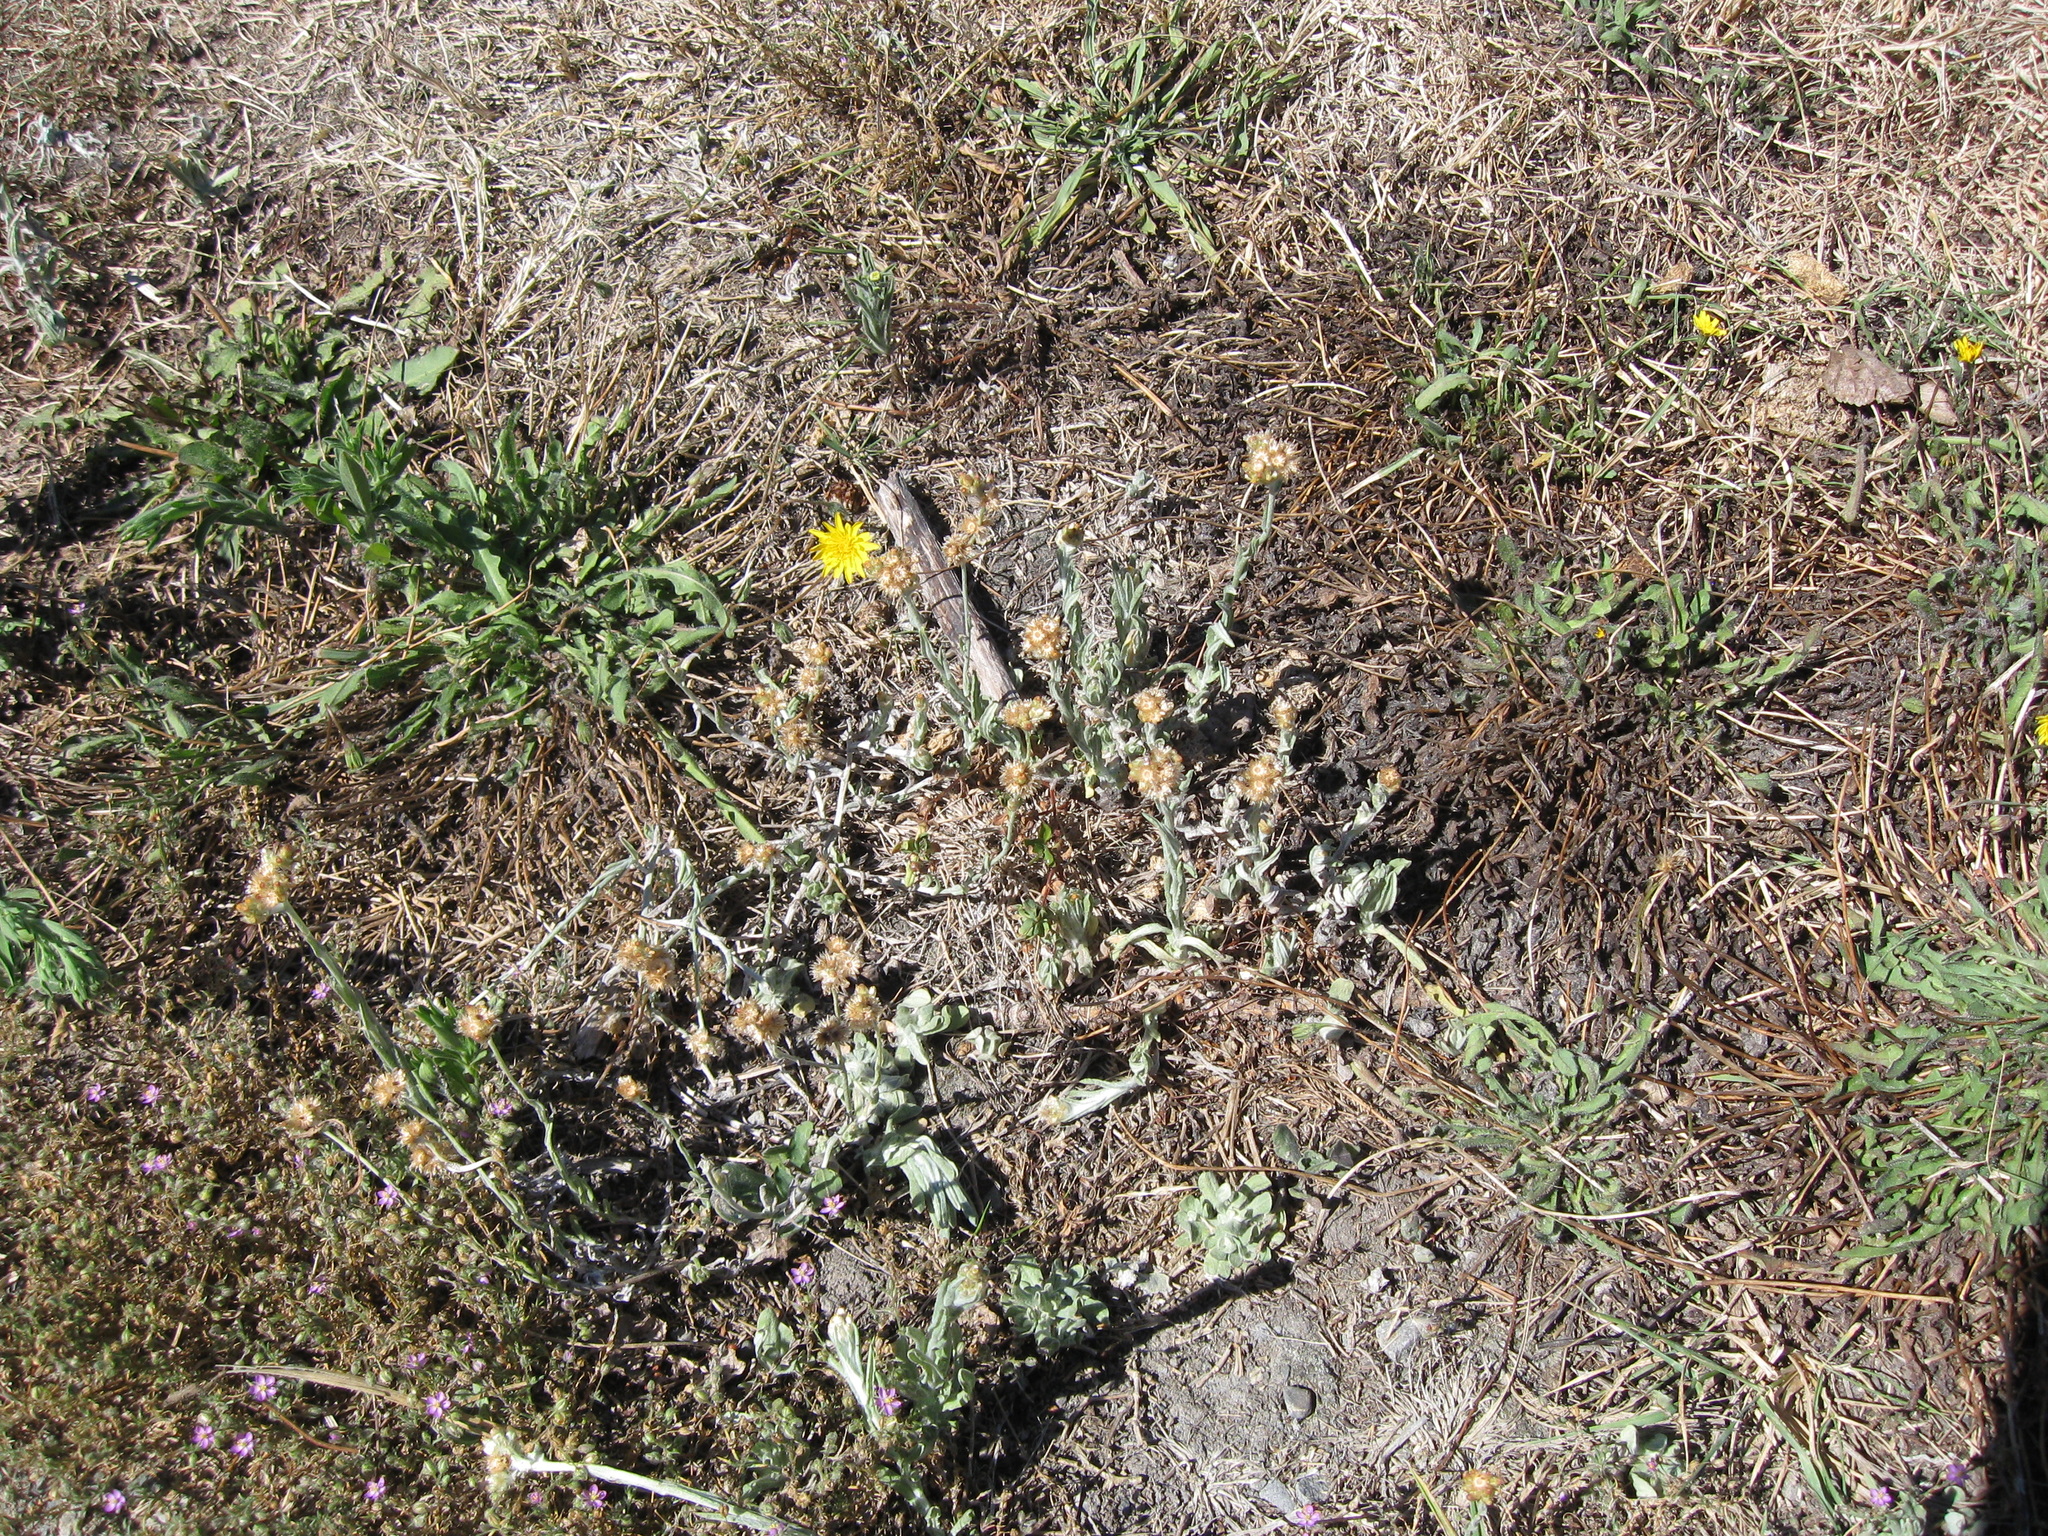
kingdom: Plantae
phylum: Tracheophyta
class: Magnoliopsida
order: Asterales
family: Asteraceae
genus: Helichrysum
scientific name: Helichrysum luteoalbum
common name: Daisy
